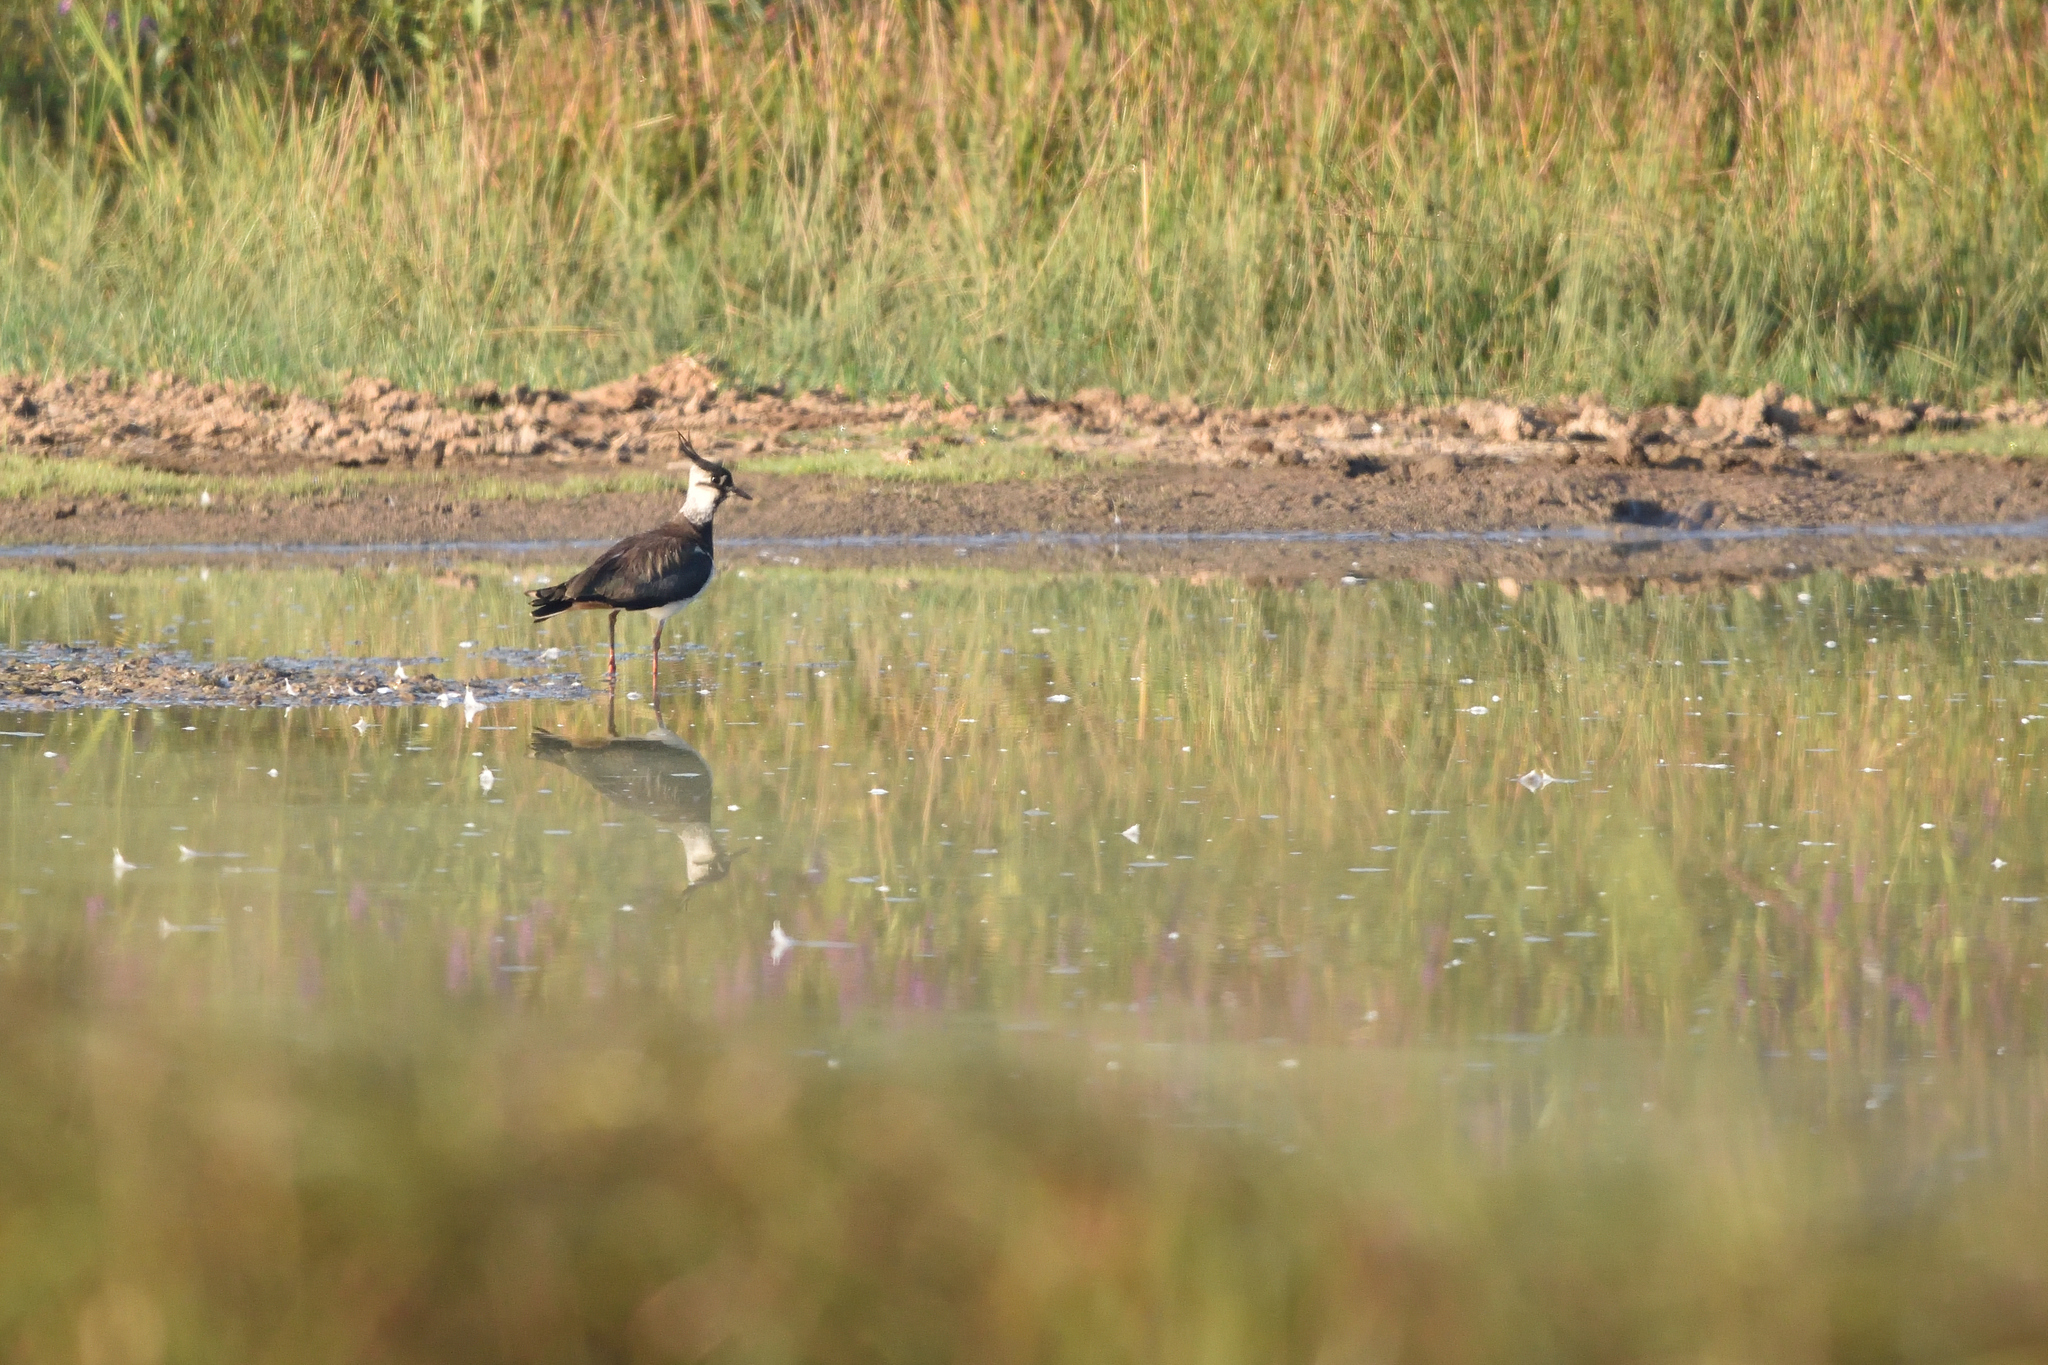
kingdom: Animalia
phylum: Chordata
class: Aves
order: Charadriiformes
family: Charadriidae
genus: Vanellus
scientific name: Vanellus vanellus
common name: Northern lapwing
